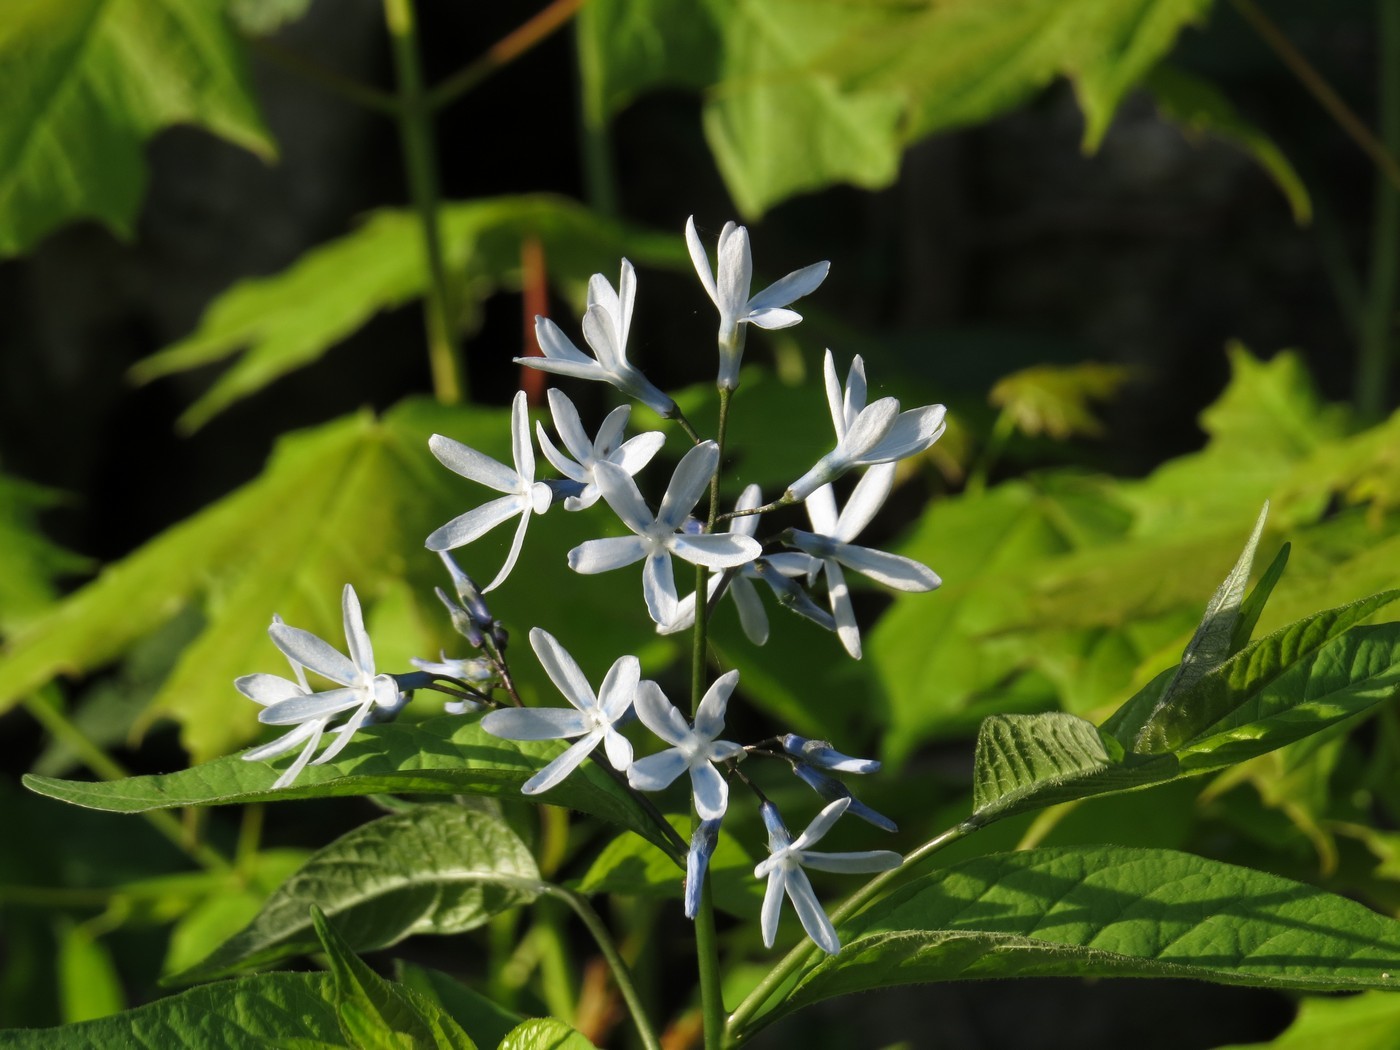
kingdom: Plantae
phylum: Tracheophyta
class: Magnoliopsida
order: Gentianales
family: Apocynaceae
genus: Amsonia
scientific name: Amsonia tabernaemontana
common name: Texas-star
